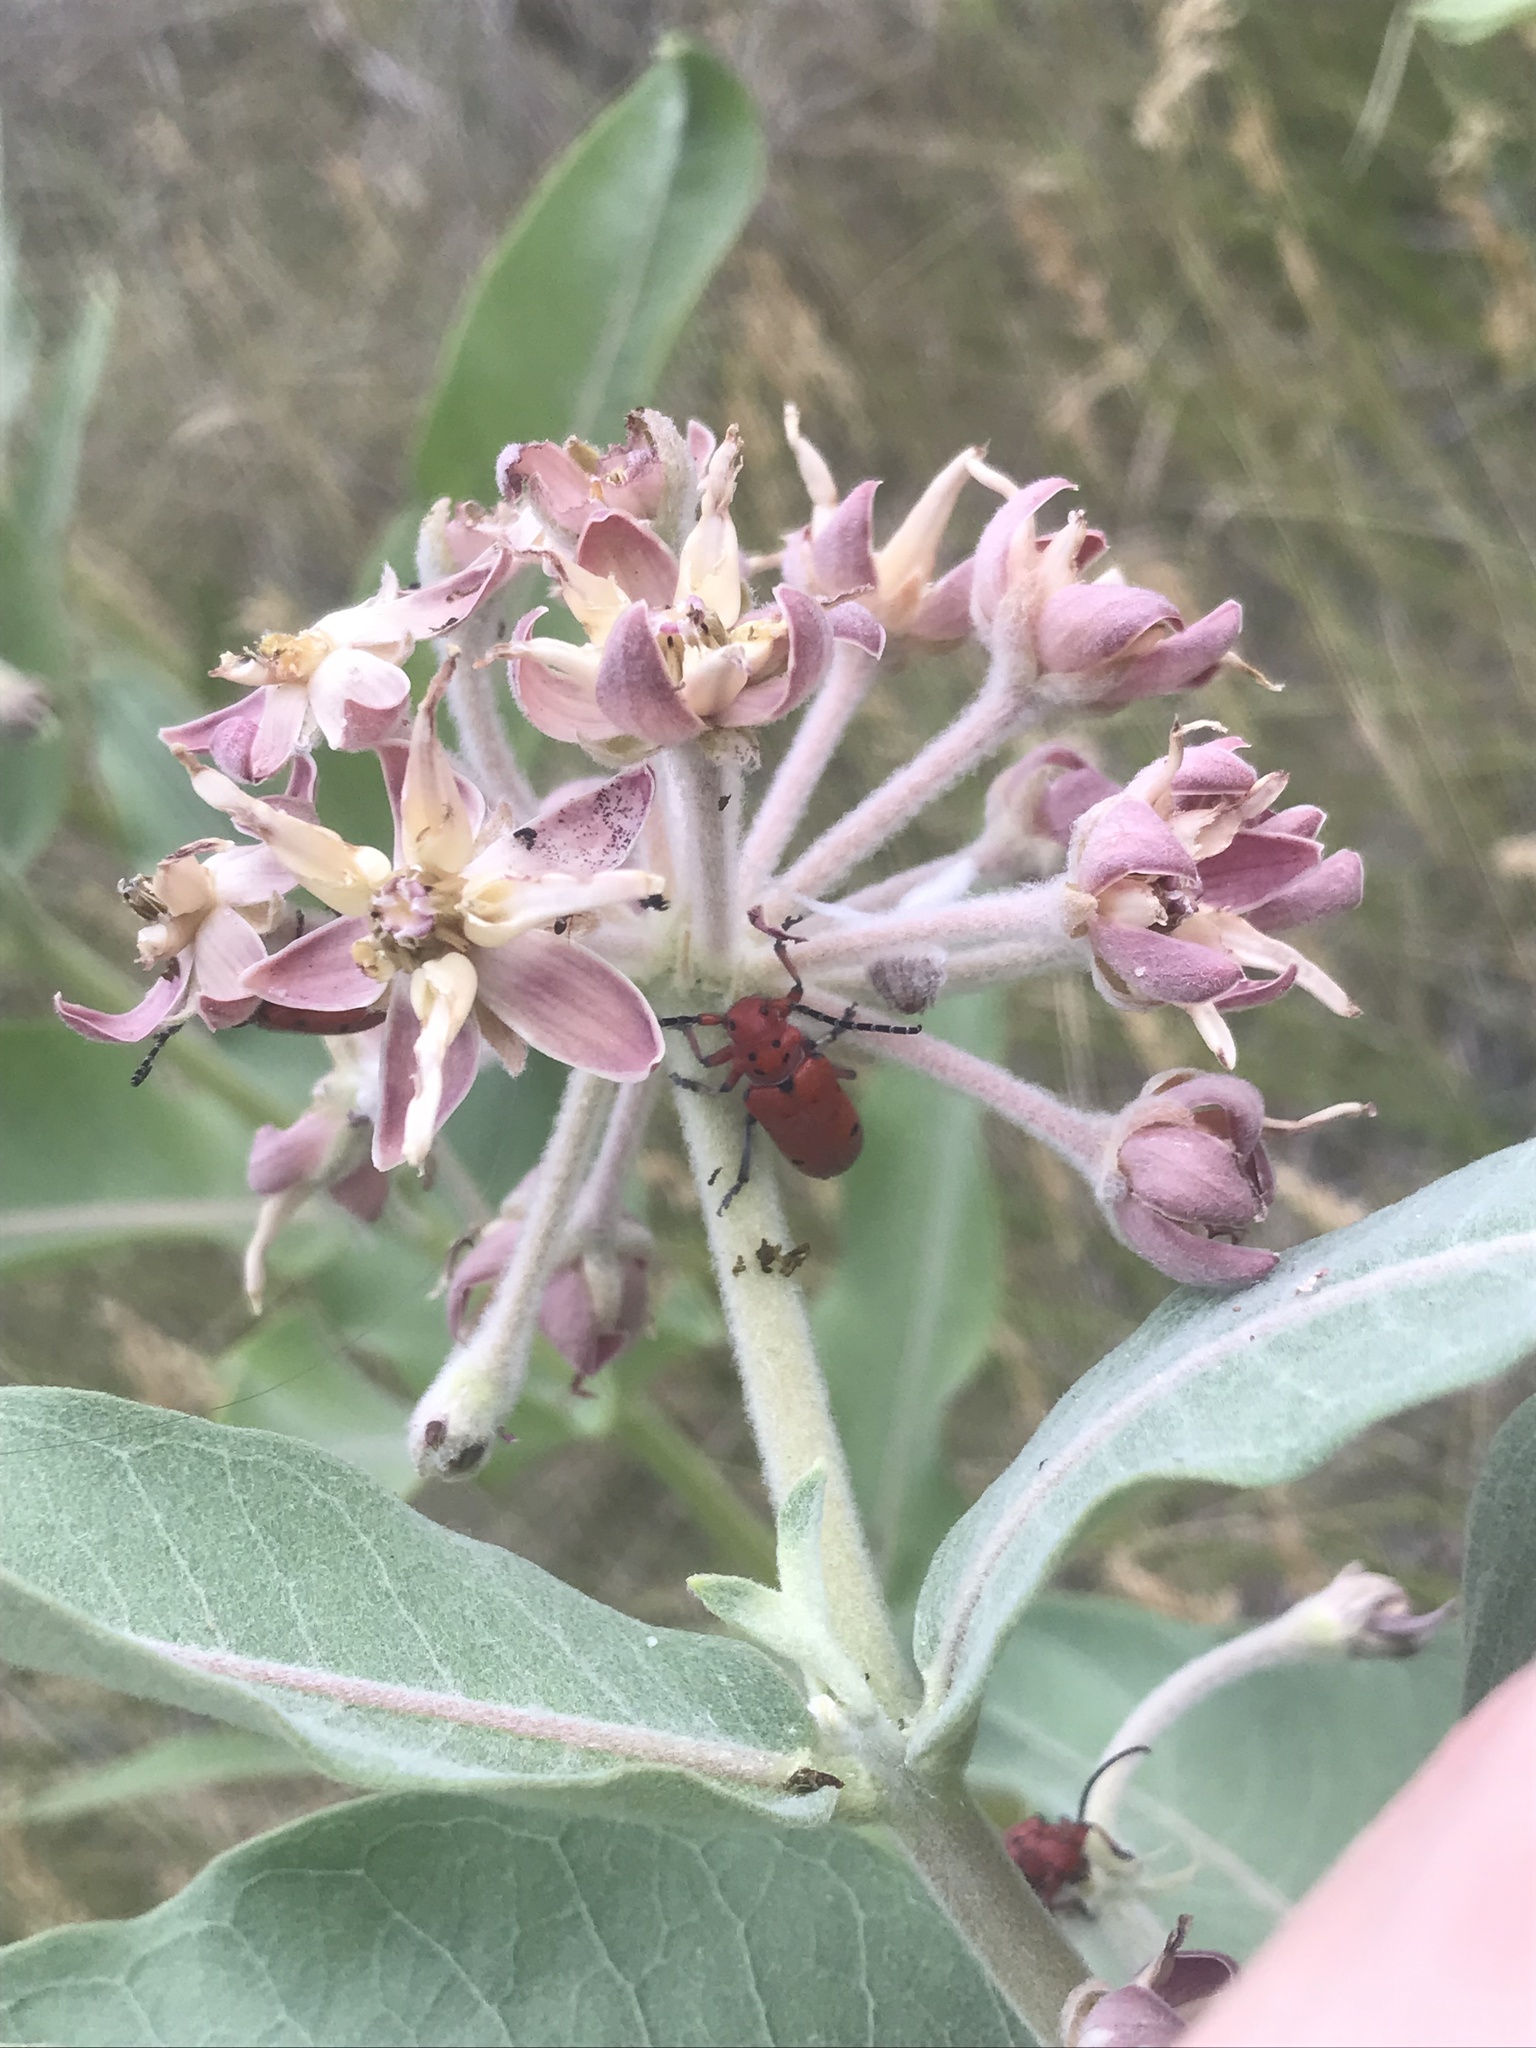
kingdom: Animalia
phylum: Arthropoda
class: Insecta
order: Coleoptera
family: Cerambycidae
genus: Tetraopes
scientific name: Tetraopes femoratus
